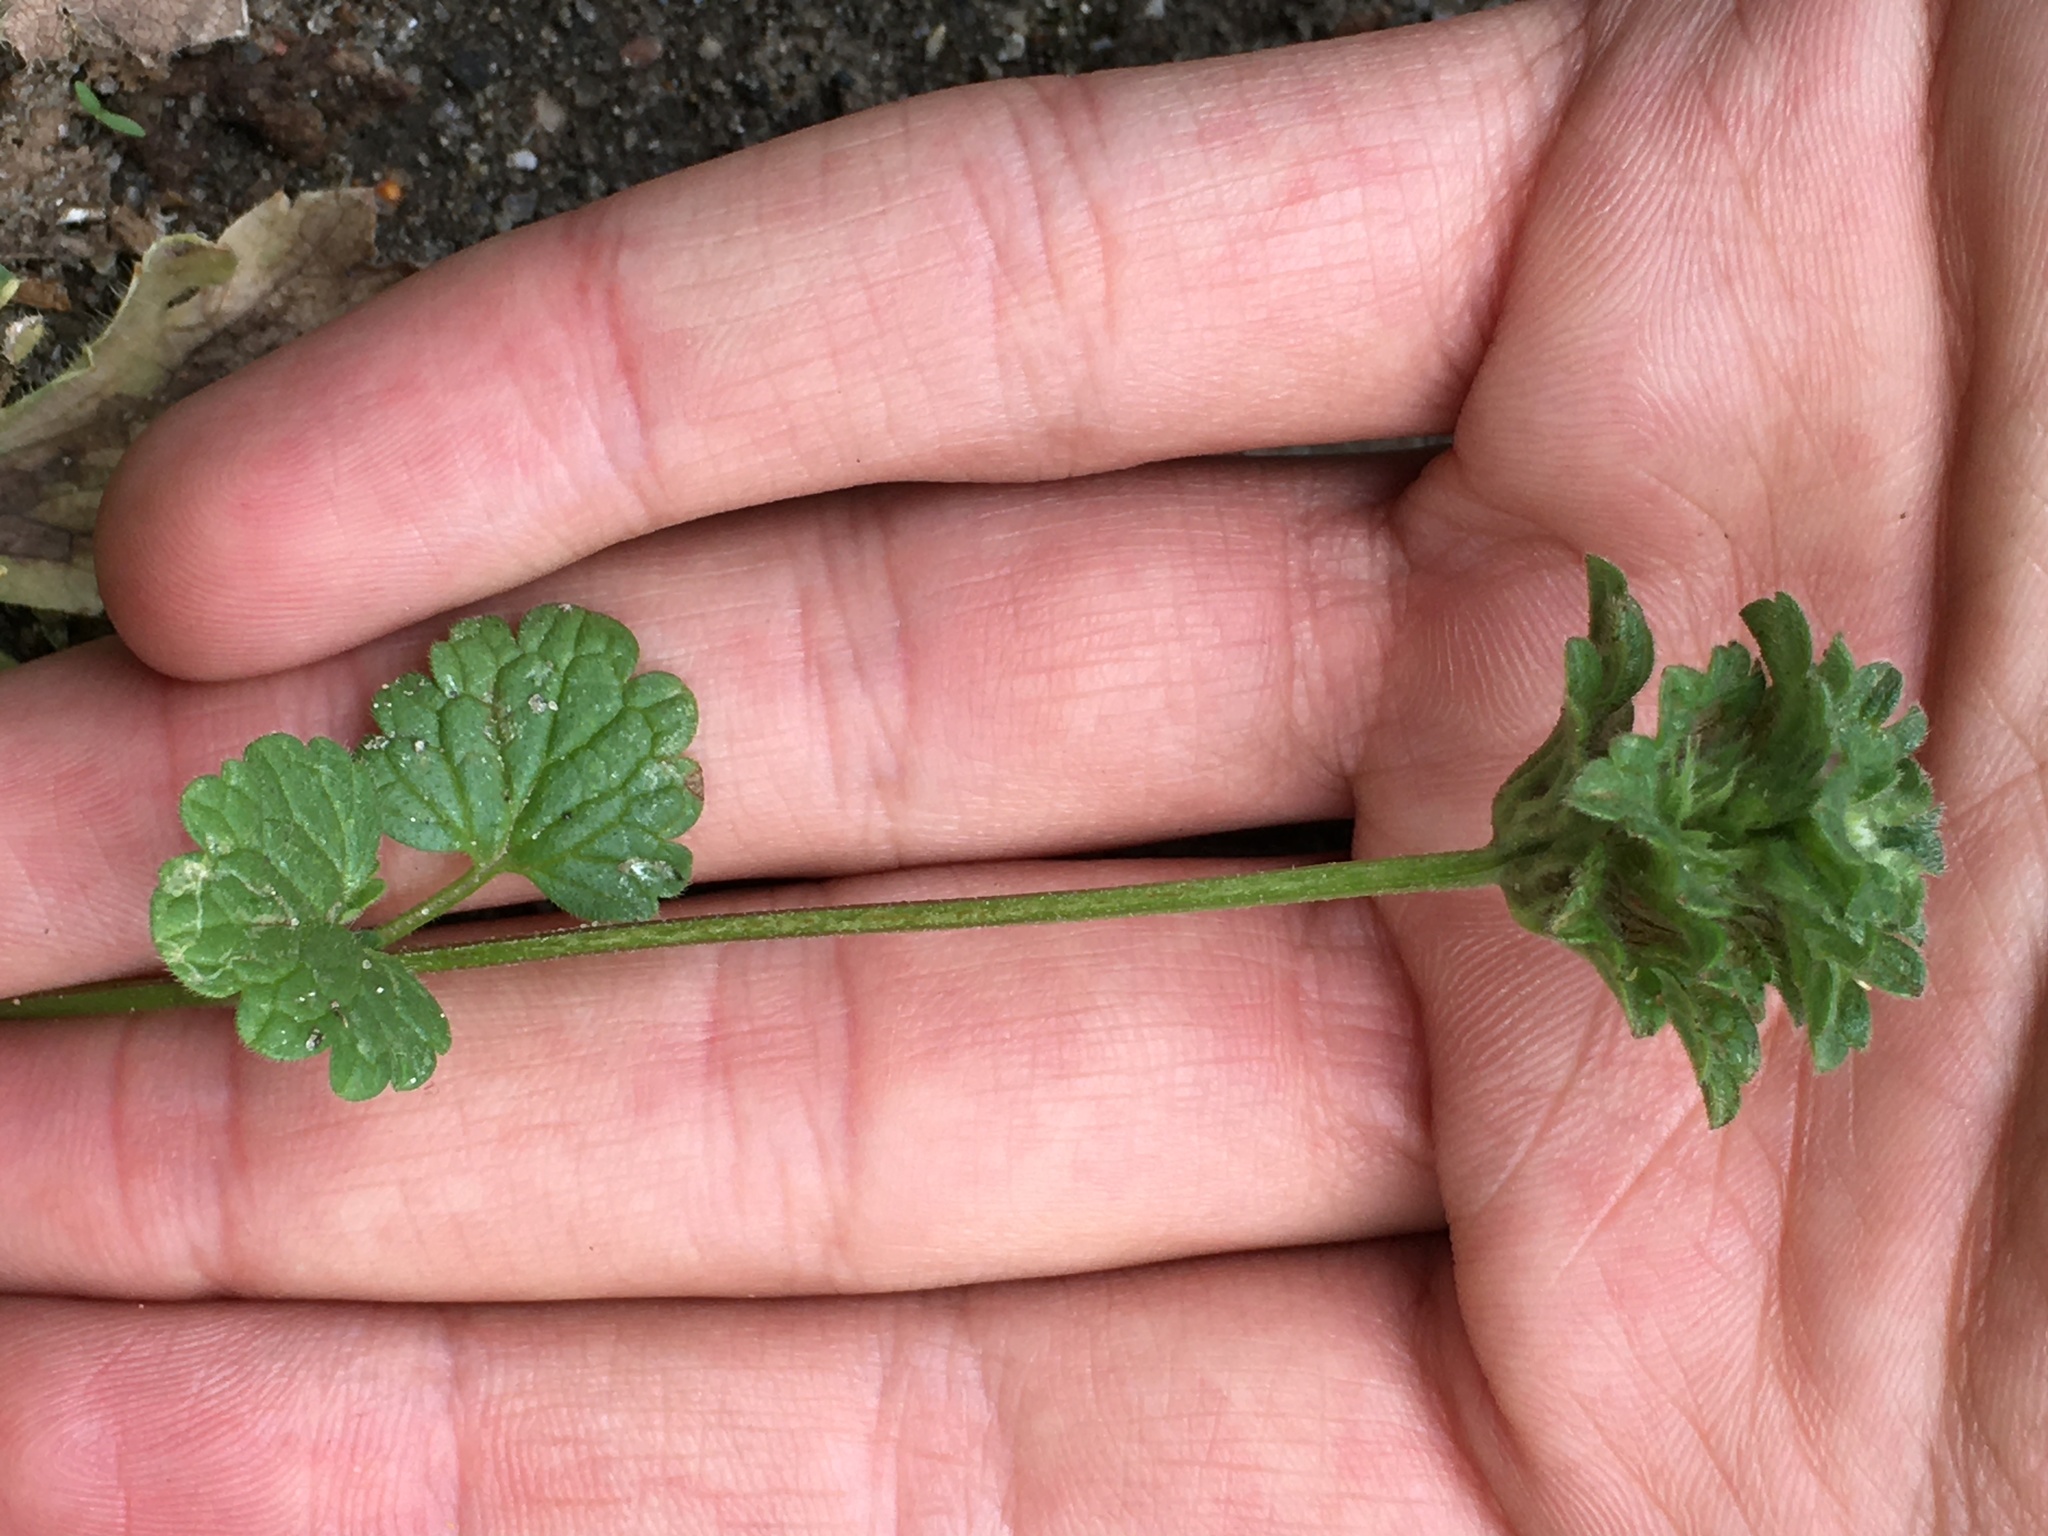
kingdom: Plantae
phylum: Tracheophyta
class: Magnoliopsida
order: Lamiales
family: Lamiaceae
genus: Lamium
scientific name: Lamium amplexicaule
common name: Henbit dead-nettle
